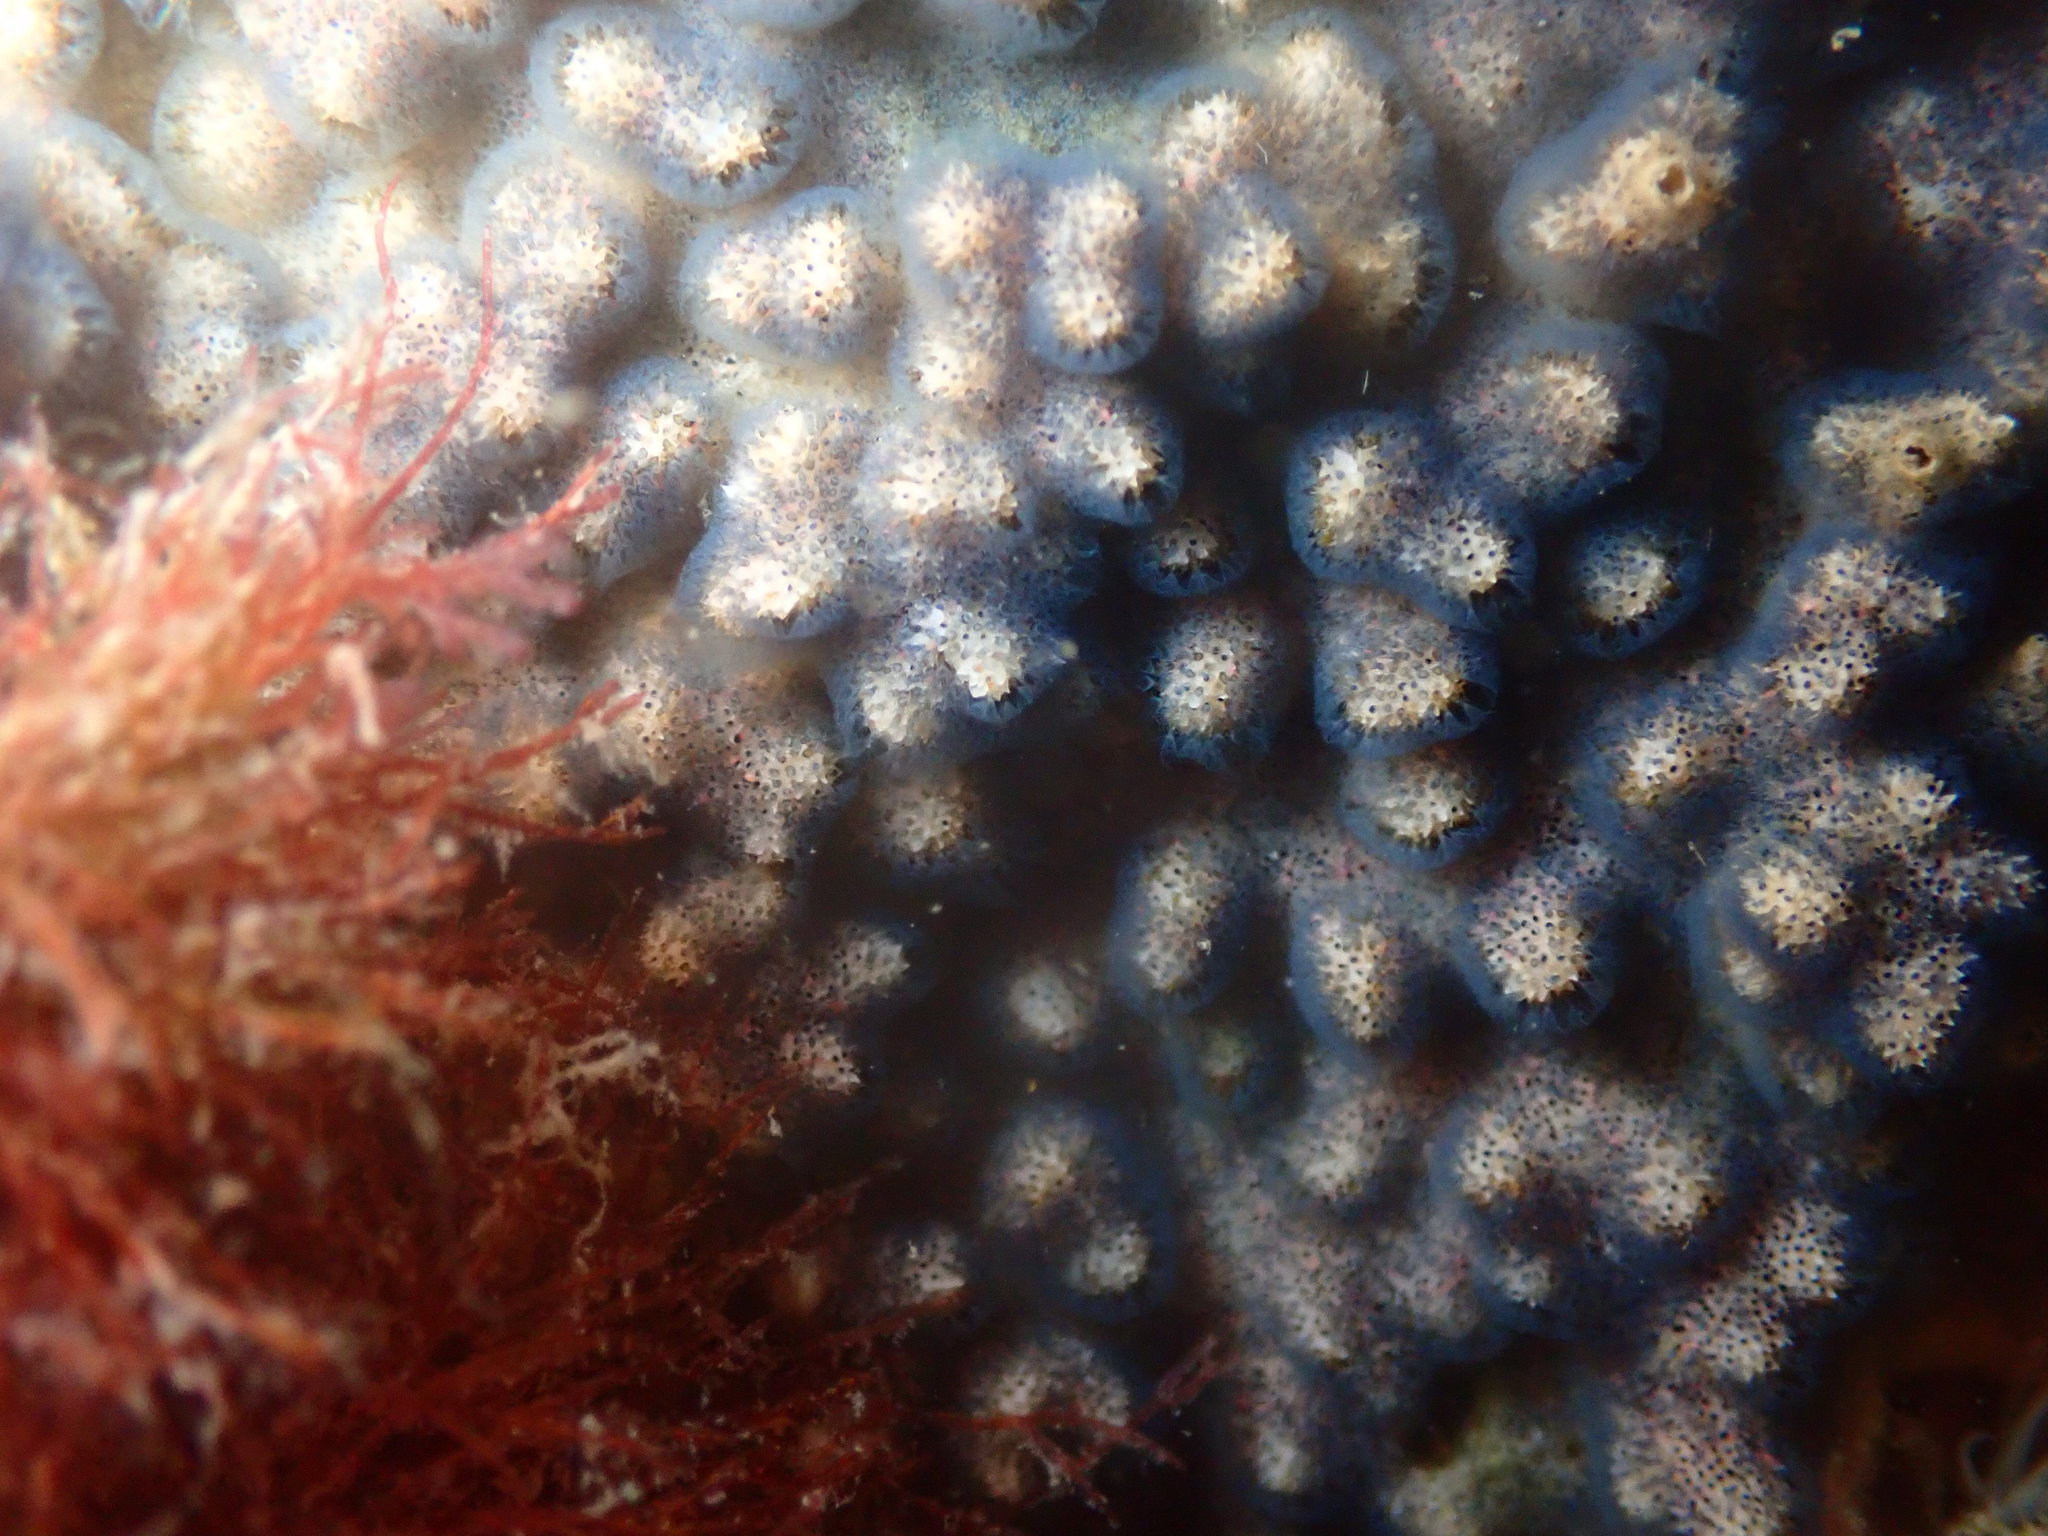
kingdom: Animalia
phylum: Bryozoa
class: Gymnolaemata
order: Cheilostomatida
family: Celleporidae
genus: Celleporaria
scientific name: Celleporaria nodulosa
